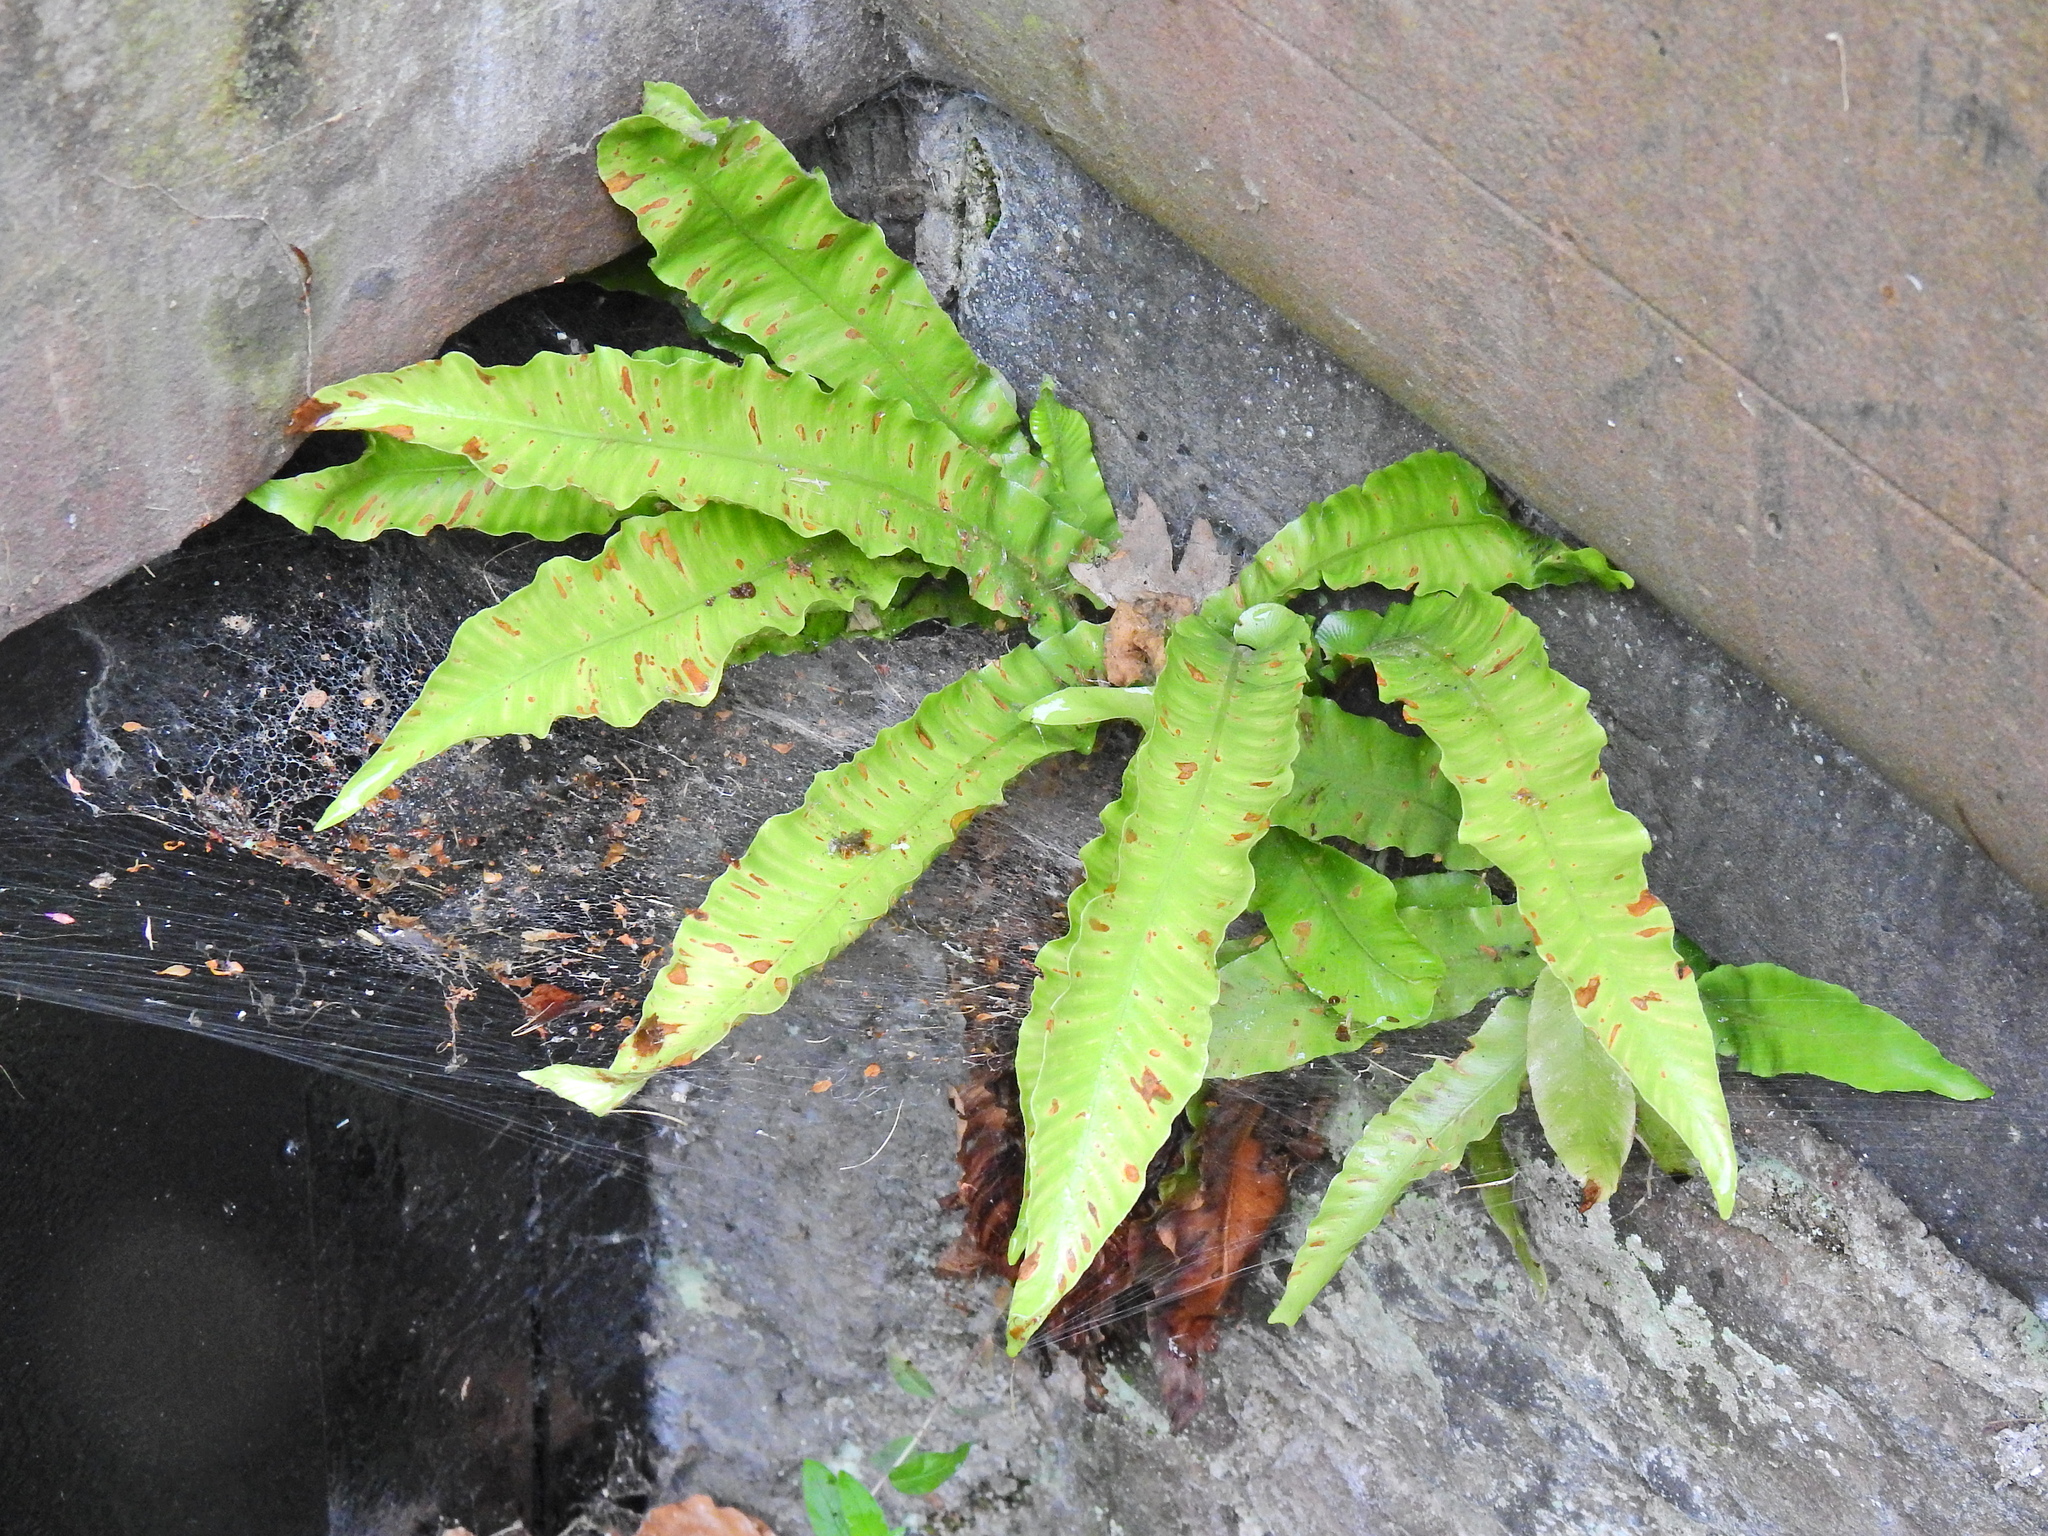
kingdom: Plantae
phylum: Tracheophyta
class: Polypodiopsida
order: Polypodiales
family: Aspleniaceae
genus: Asplenium
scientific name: Asplenium scolopendrium
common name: Hart's-tongue fern
